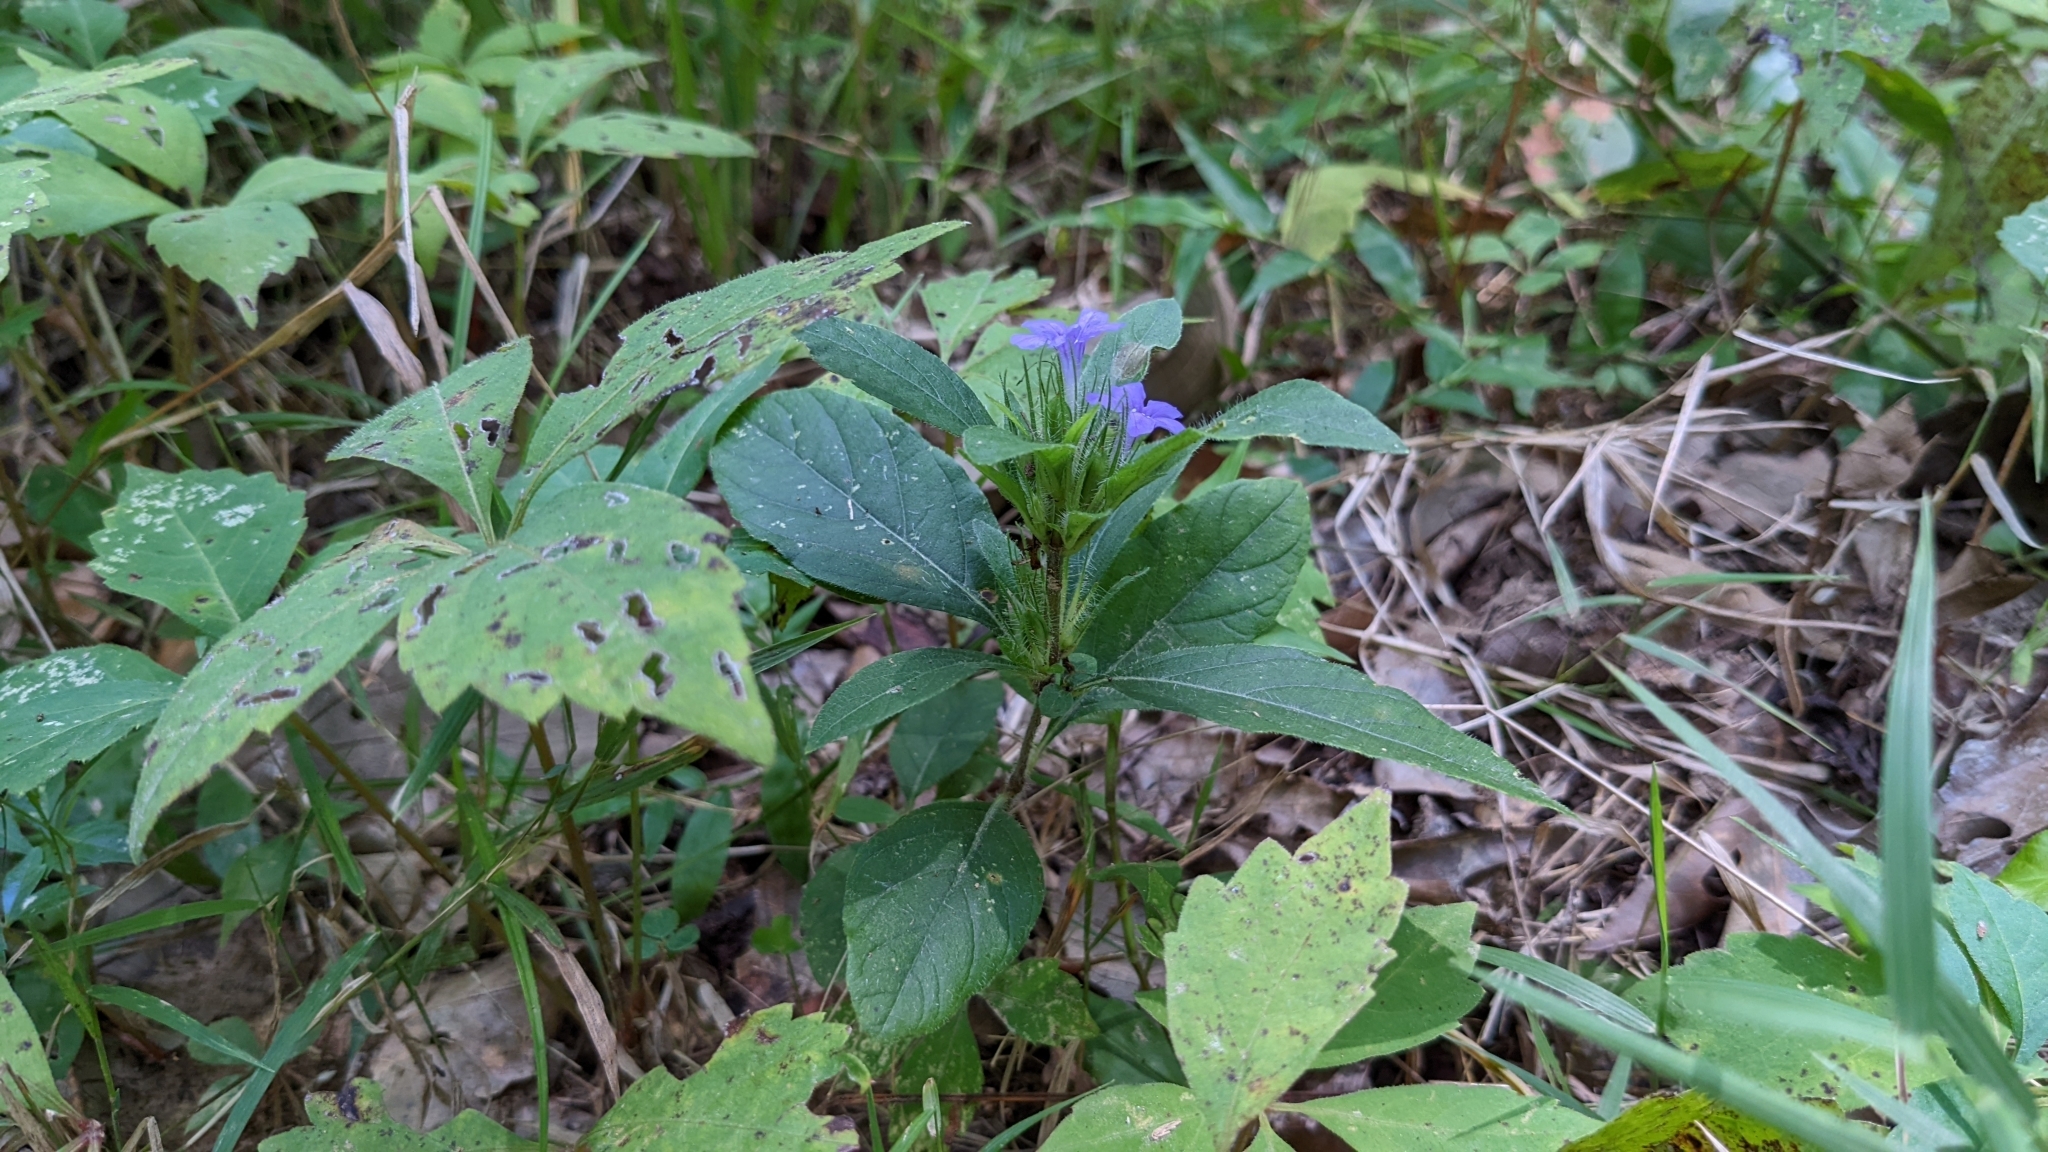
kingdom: Plantae
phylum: Tracheophyta
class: Magnoliopsida
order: Lamiales
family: Acanthaceae
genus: Ruellia
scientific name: Ruellia caroliniensis
